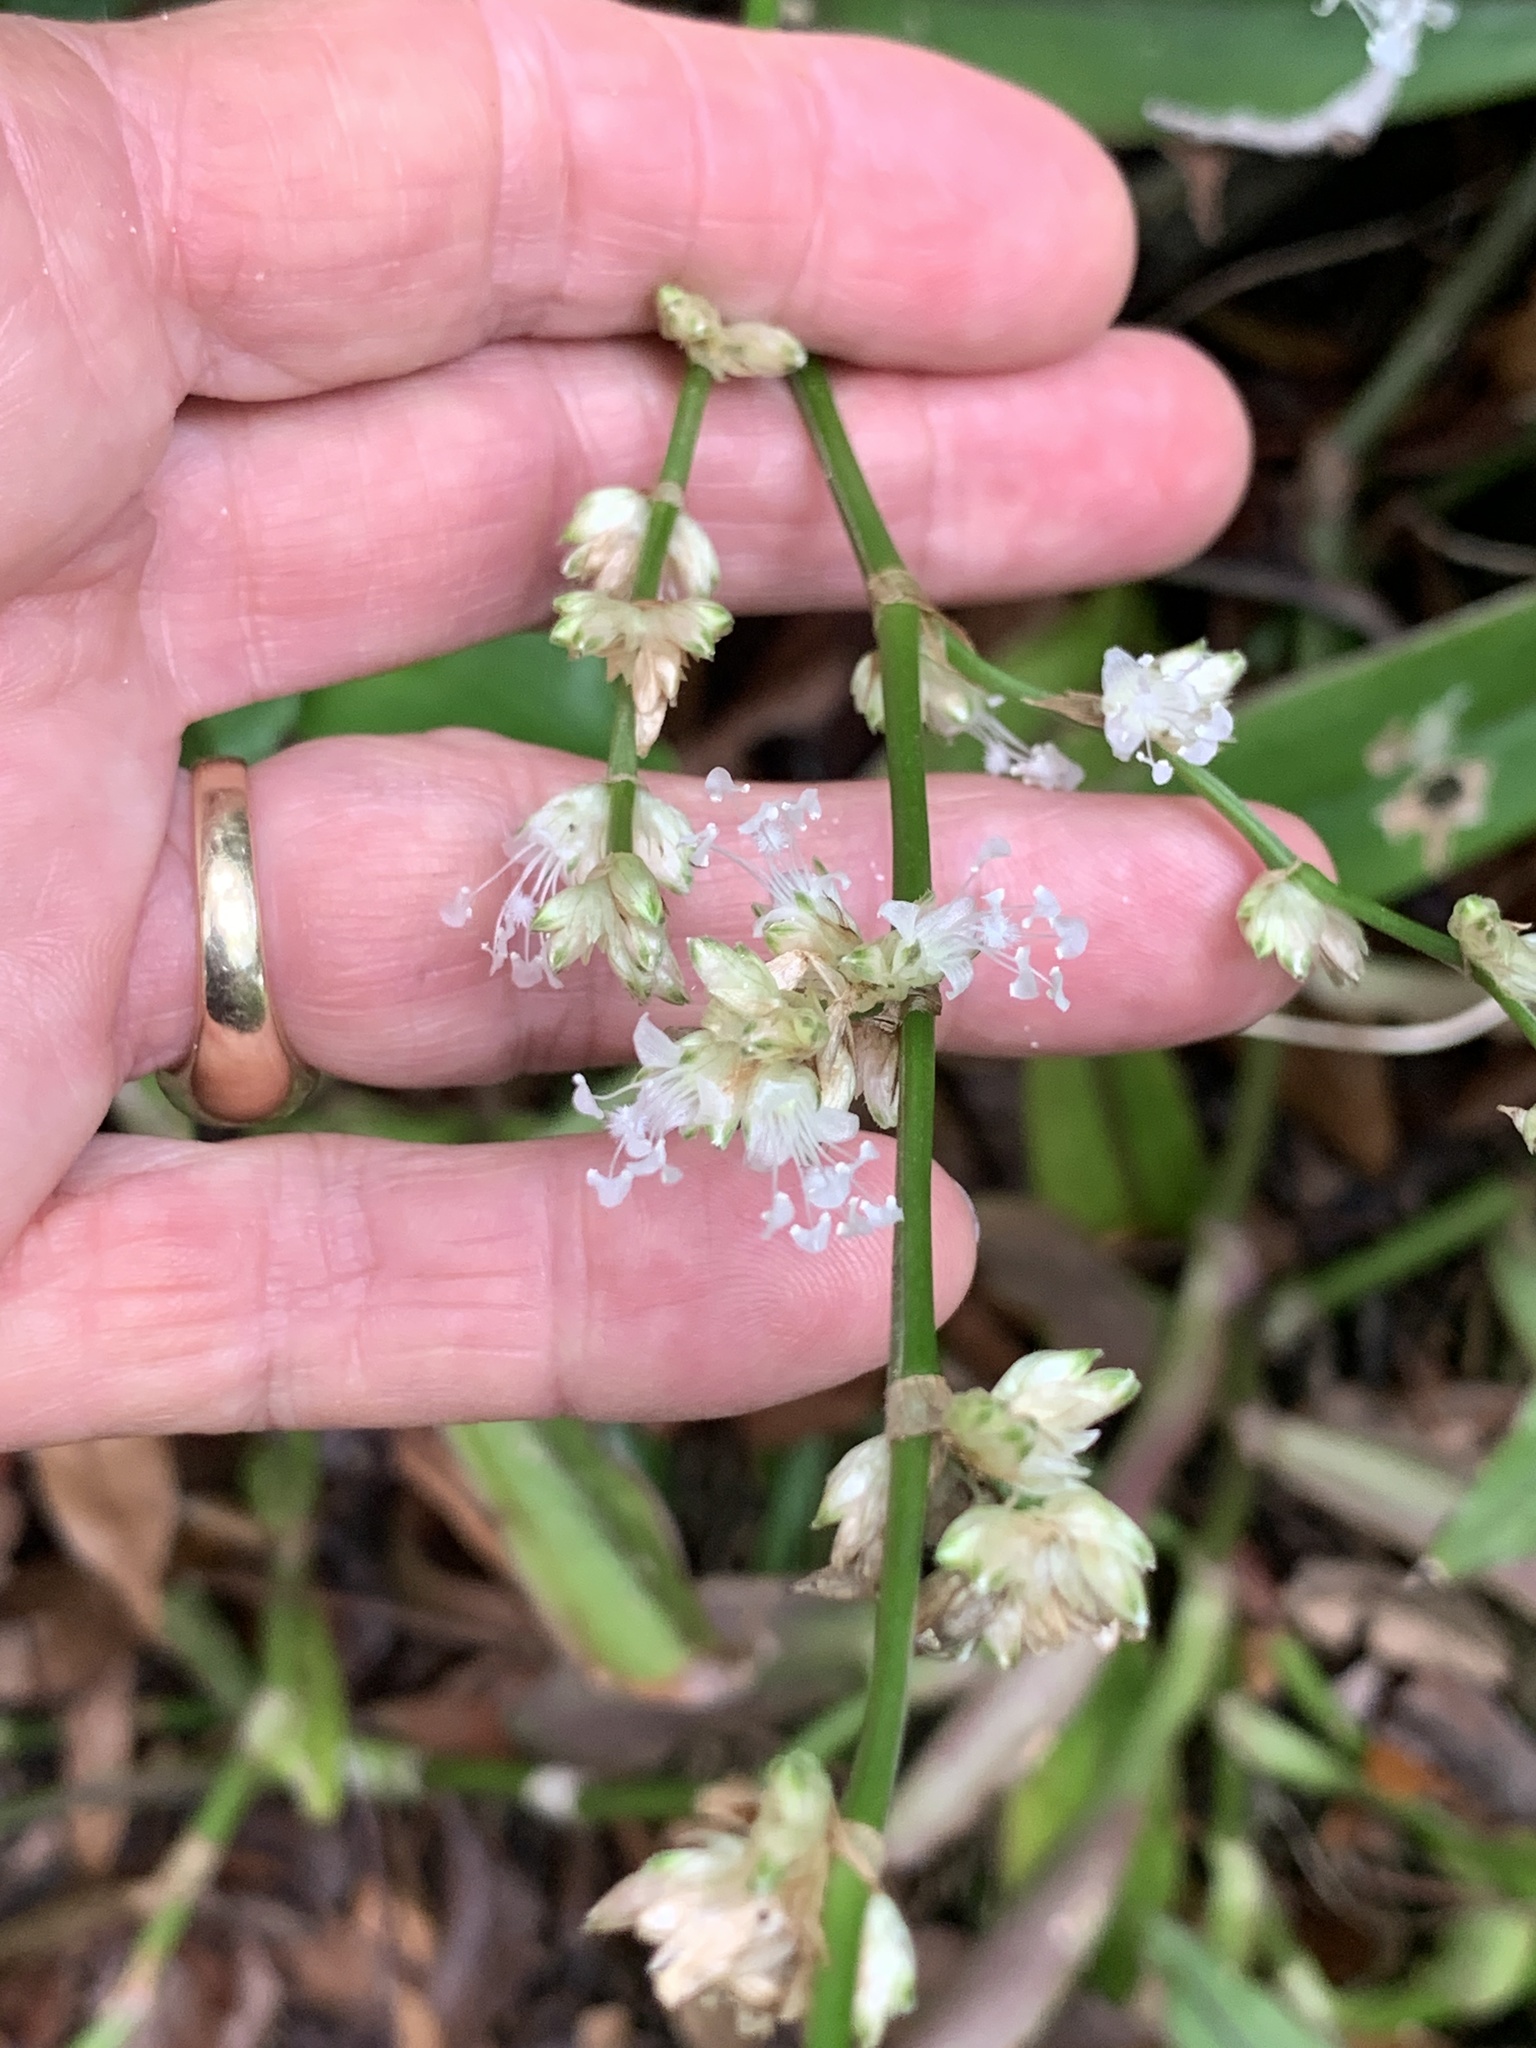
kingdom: Plantae
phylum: Tracheophyta
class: Liliopsida
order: Commelinales
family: Commelinaceae
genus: Callisia
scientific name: Callisia fragrans
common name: Basketplant
